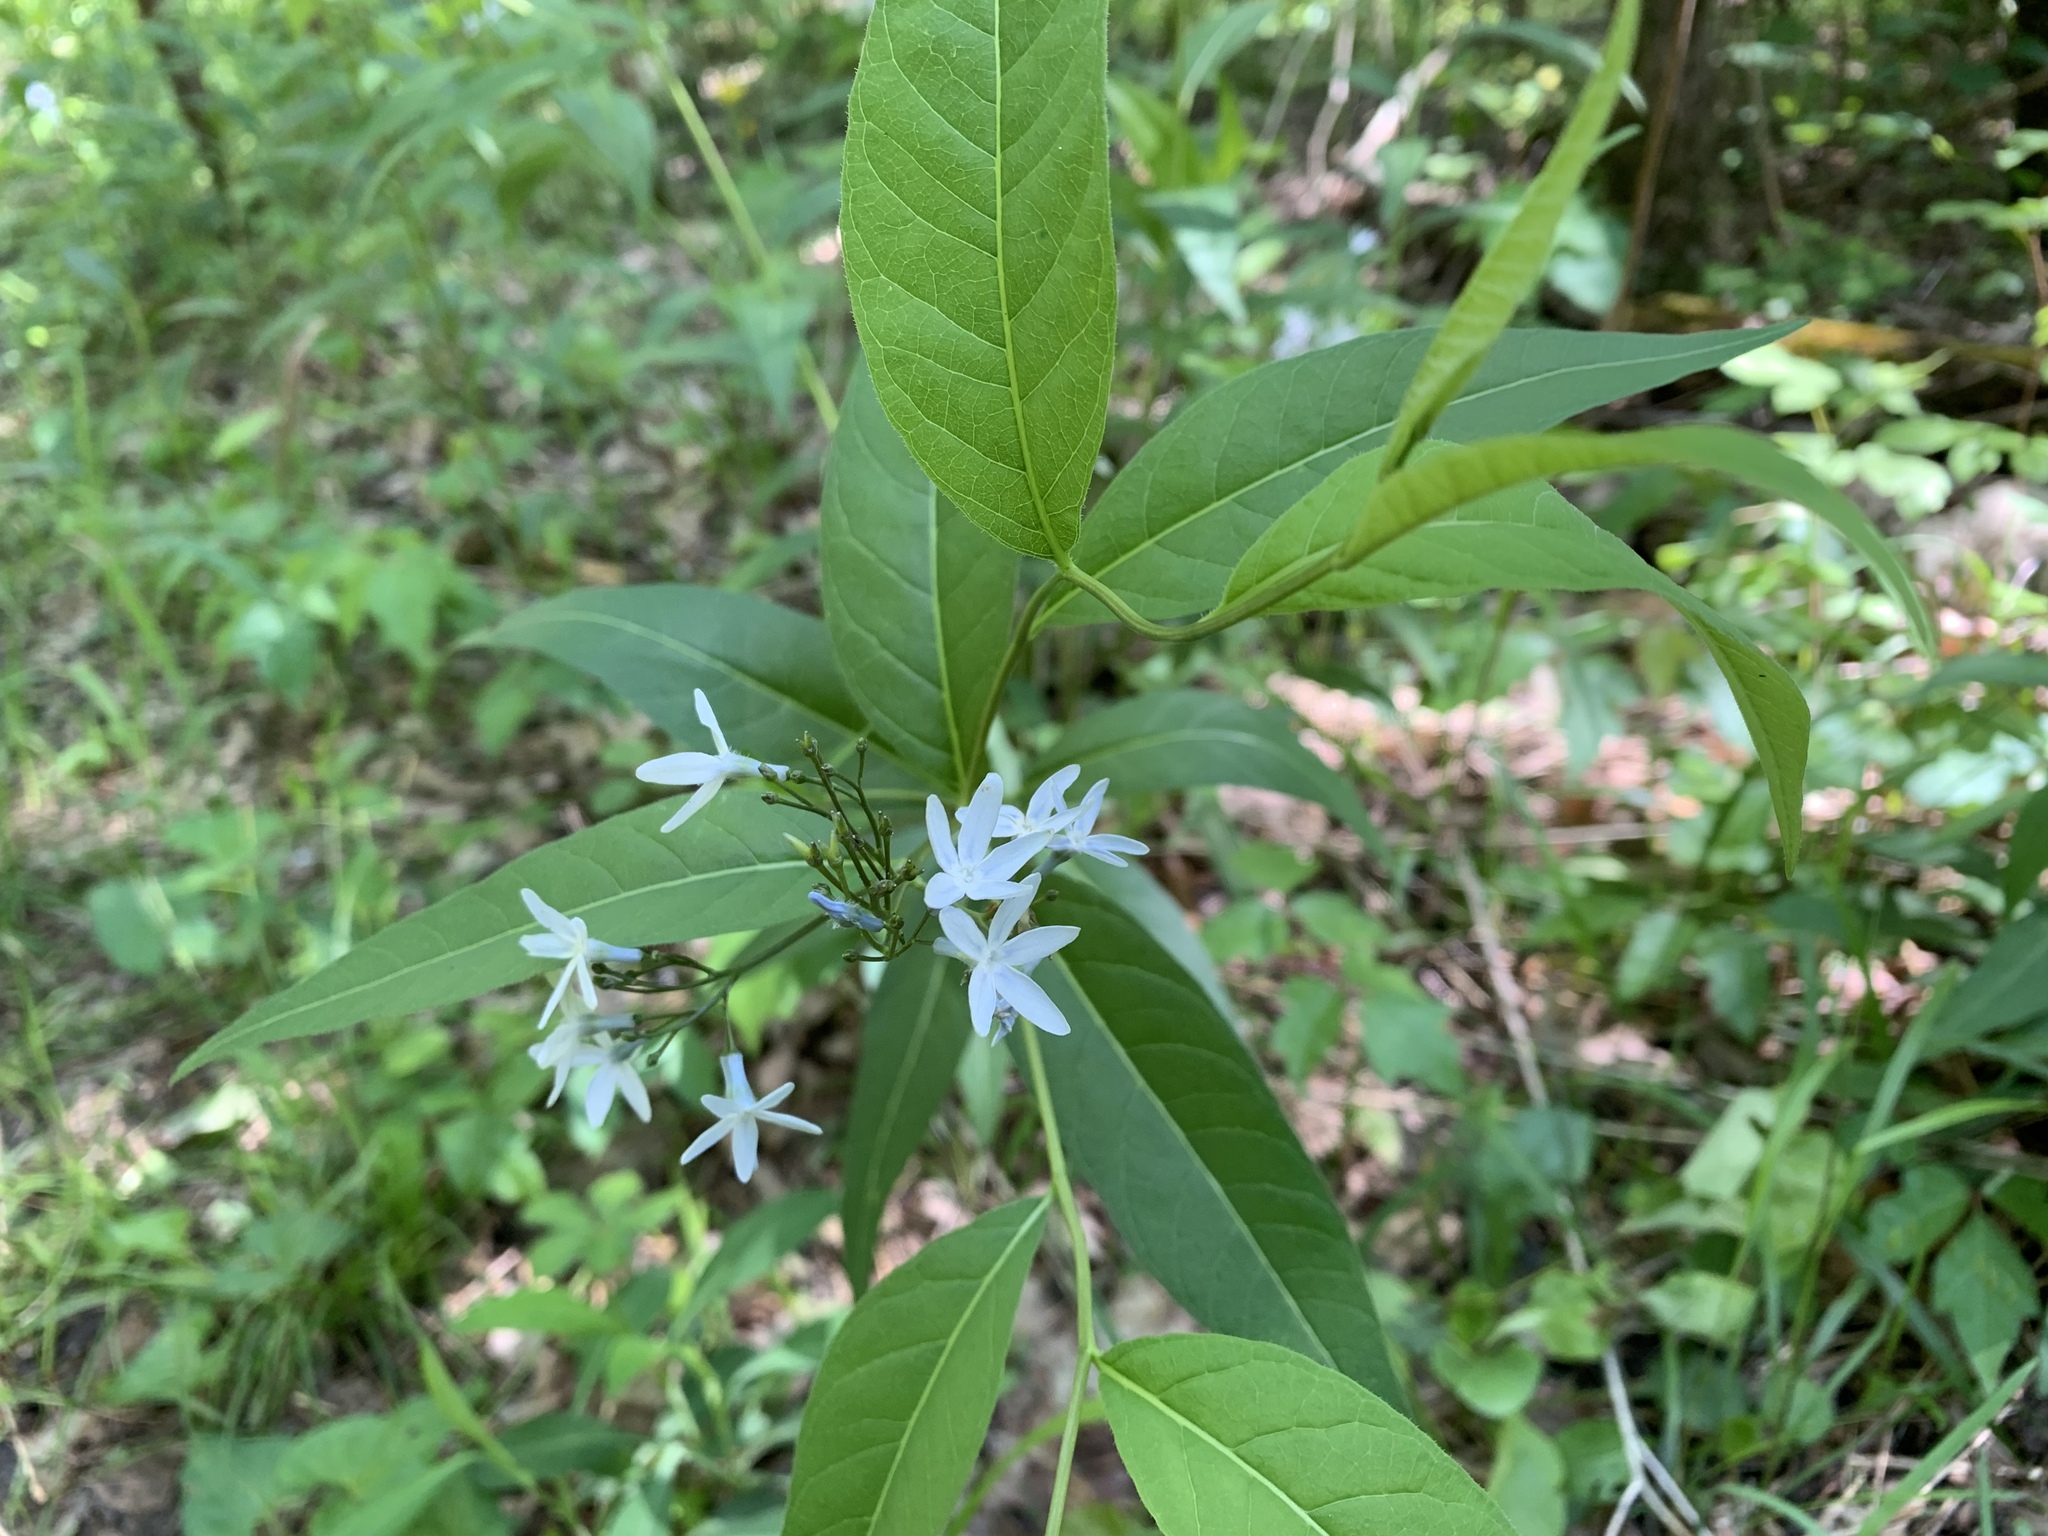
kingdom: Plantae
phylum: Tracheophyta
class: Magnoliopsida
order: Gentianales
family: Apocynaceae
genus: Amsonia
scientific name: Amsonia tabernaemontana
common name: Texas-star
